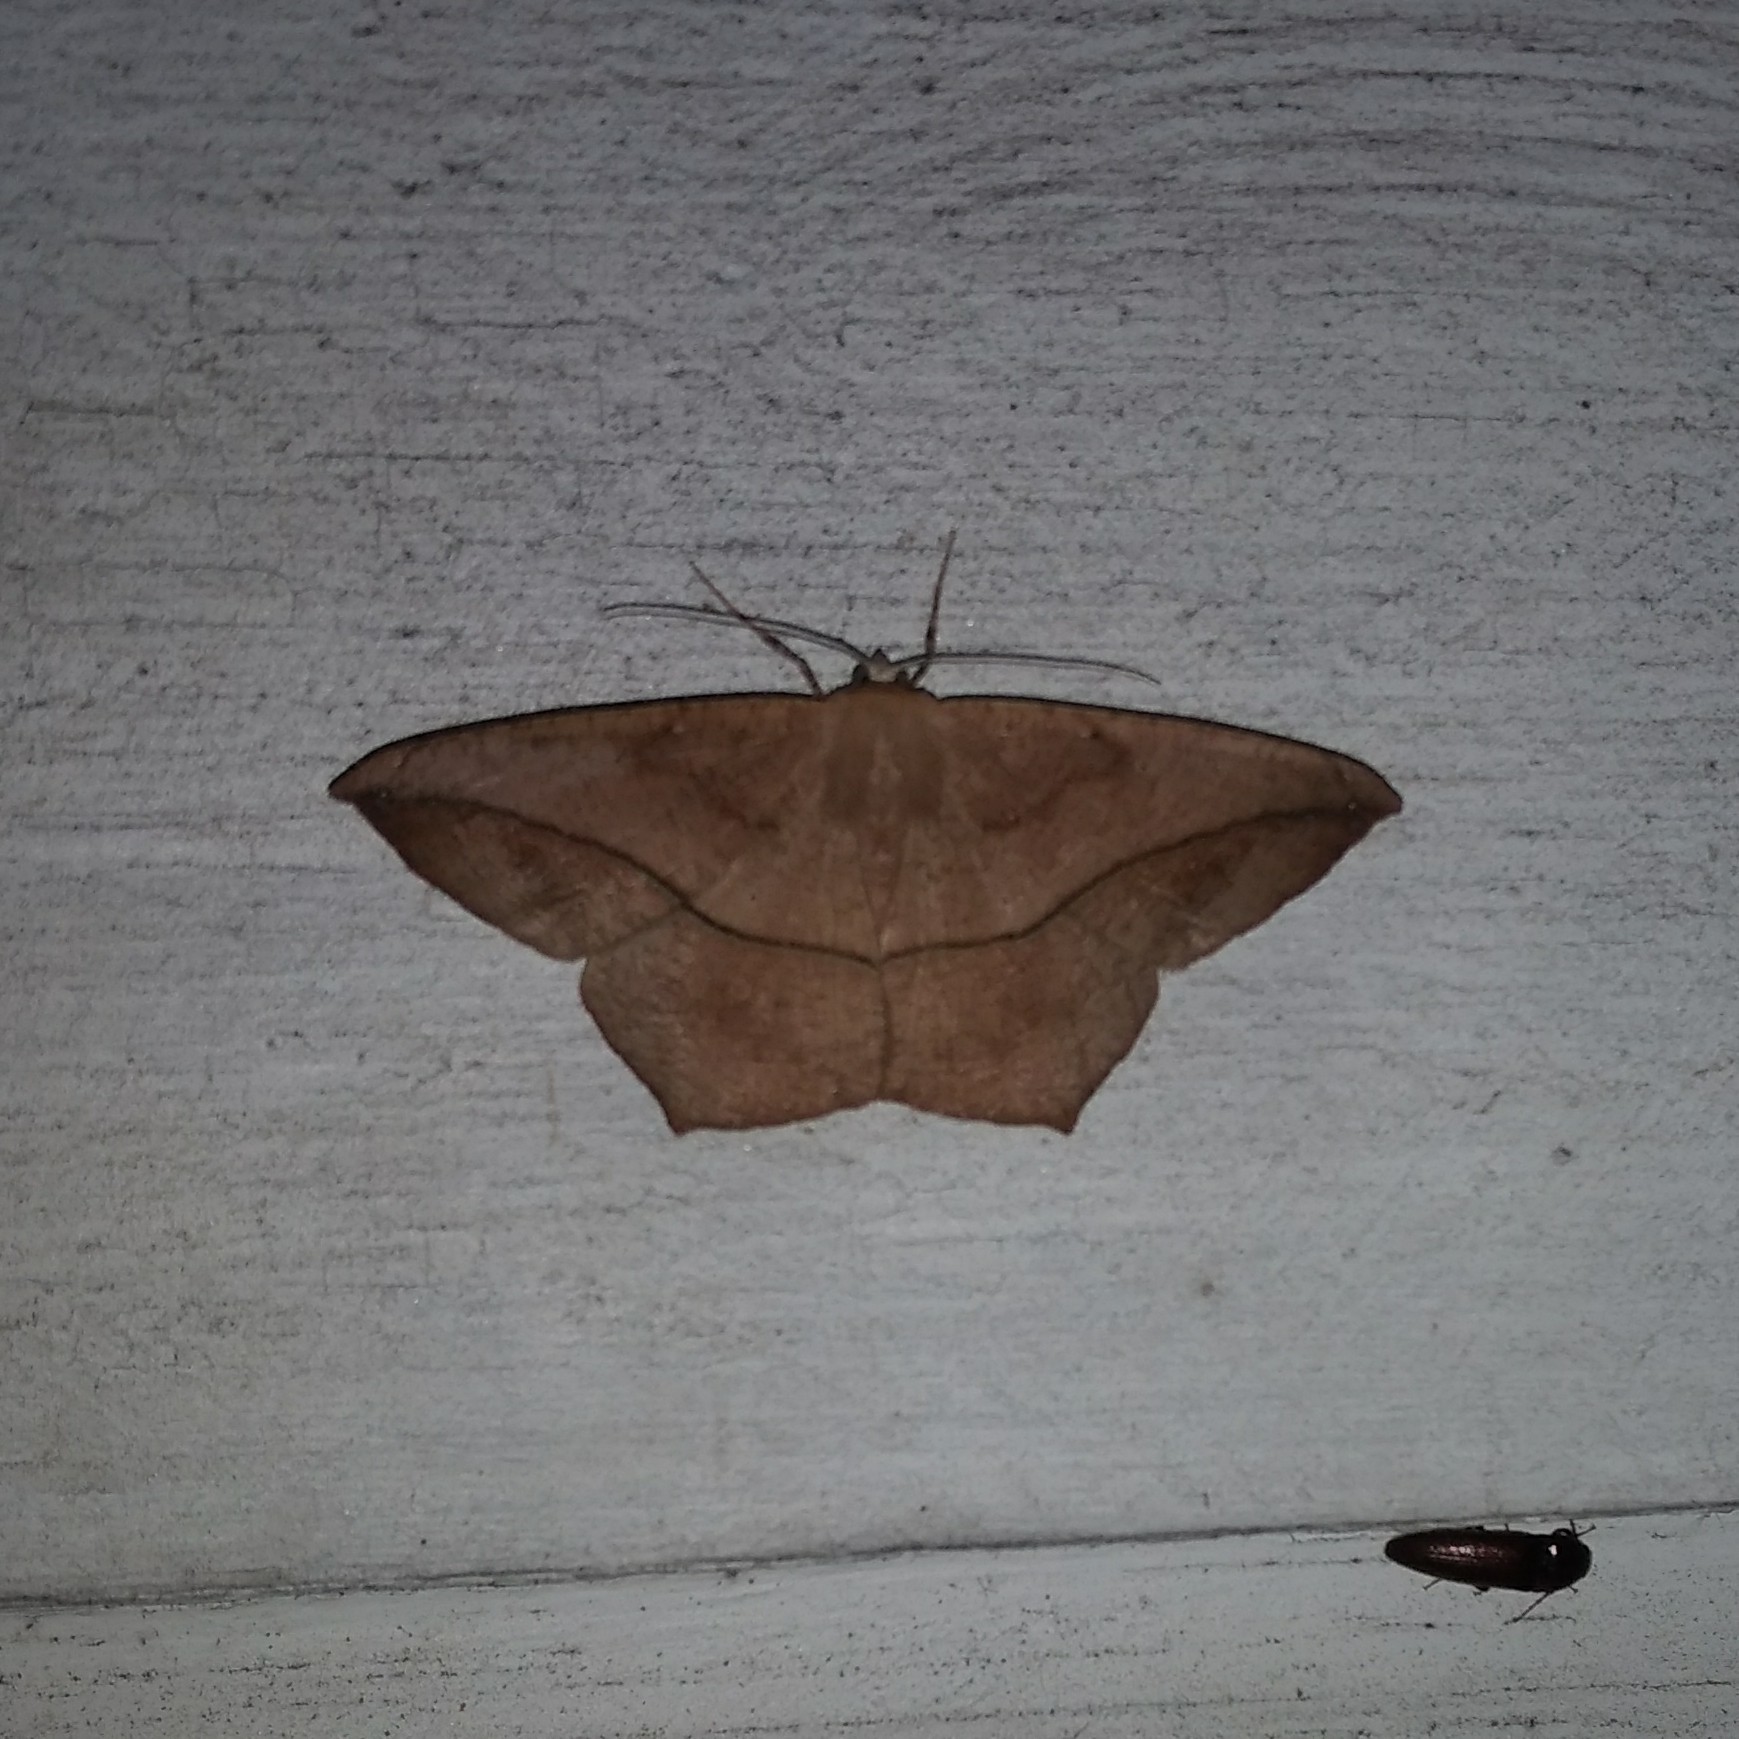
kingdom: Animalia
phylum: Arthropoda
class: Insecta
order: Lepidoptera
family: Geometridae
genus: Prochoerodes
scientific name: Prochoerodes lineola
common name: Large maple spanworm
